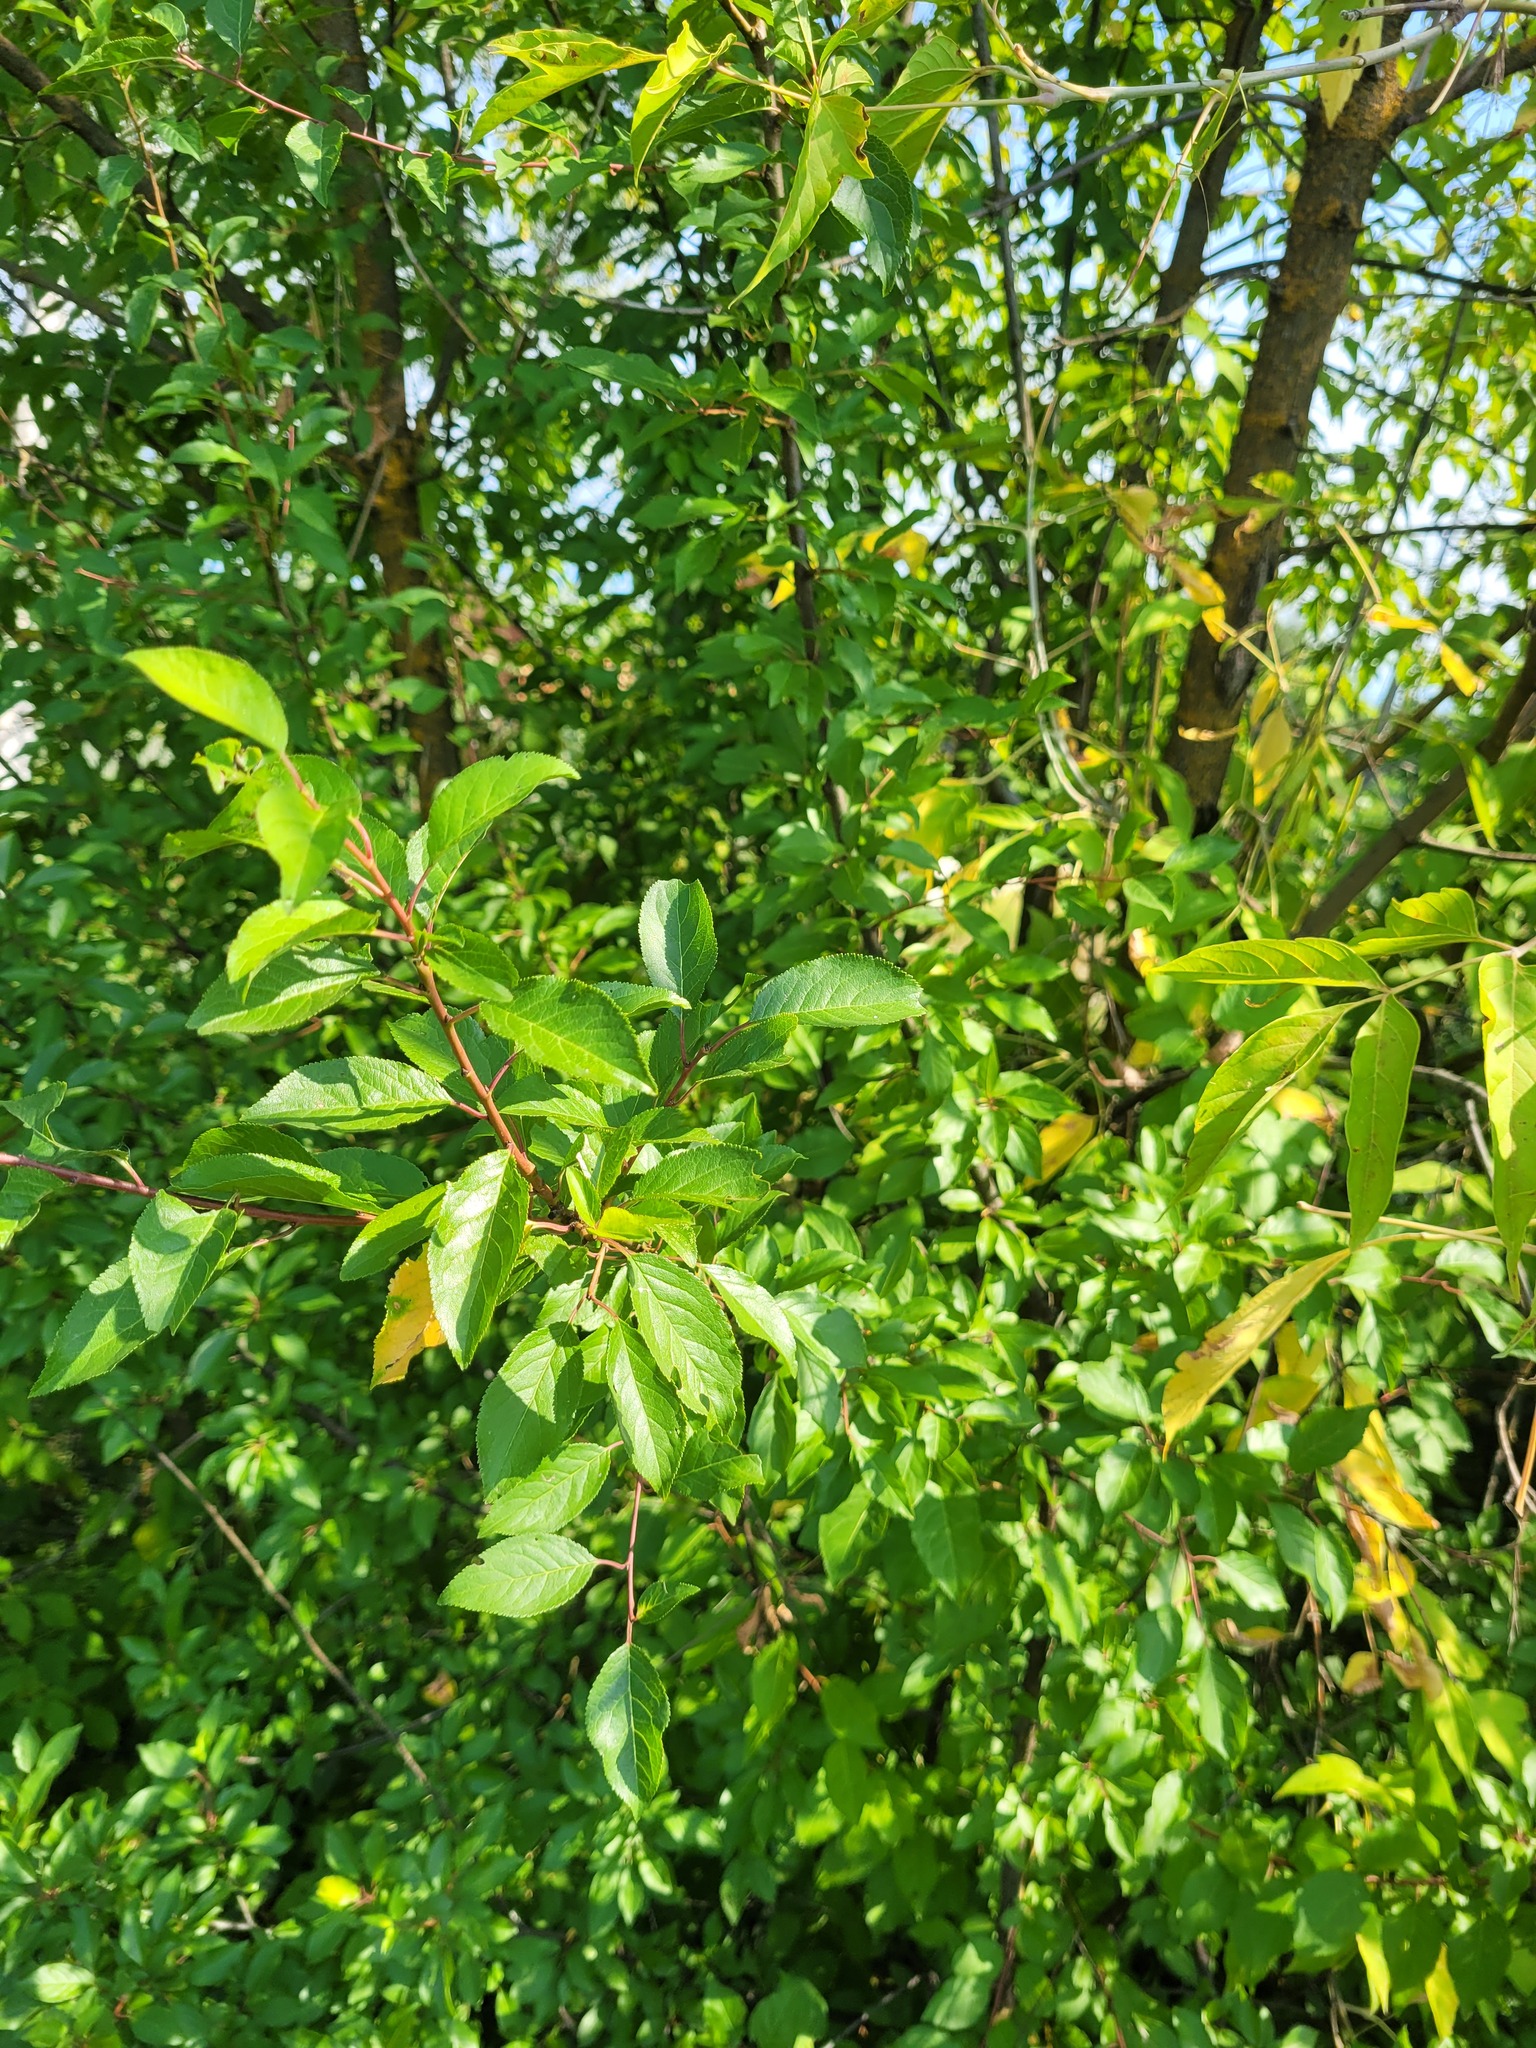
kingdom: Plantae
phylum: Tracheophyta
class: Magnoliopsida
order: Rosales
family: Rosaceae
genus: Prunus
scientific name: Prunus cerasifera
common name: Cherry plum
